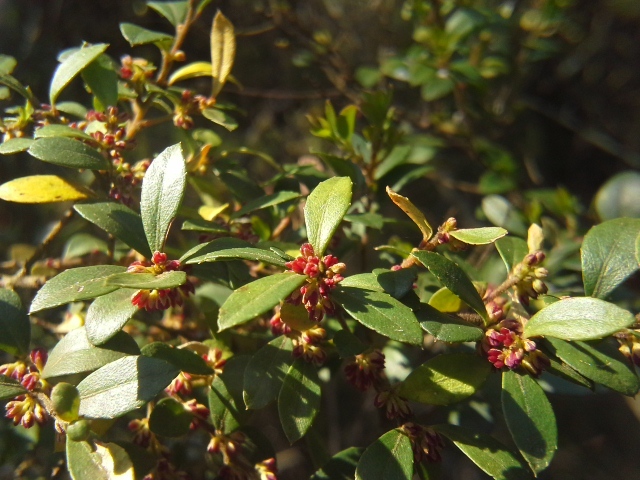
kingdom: Plantae
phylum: Tracheophyta
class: Magnoliopsida
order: Ericales
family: Primulaceae
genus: Myrsine
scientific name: Myrsine africana
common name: African-boxwood
